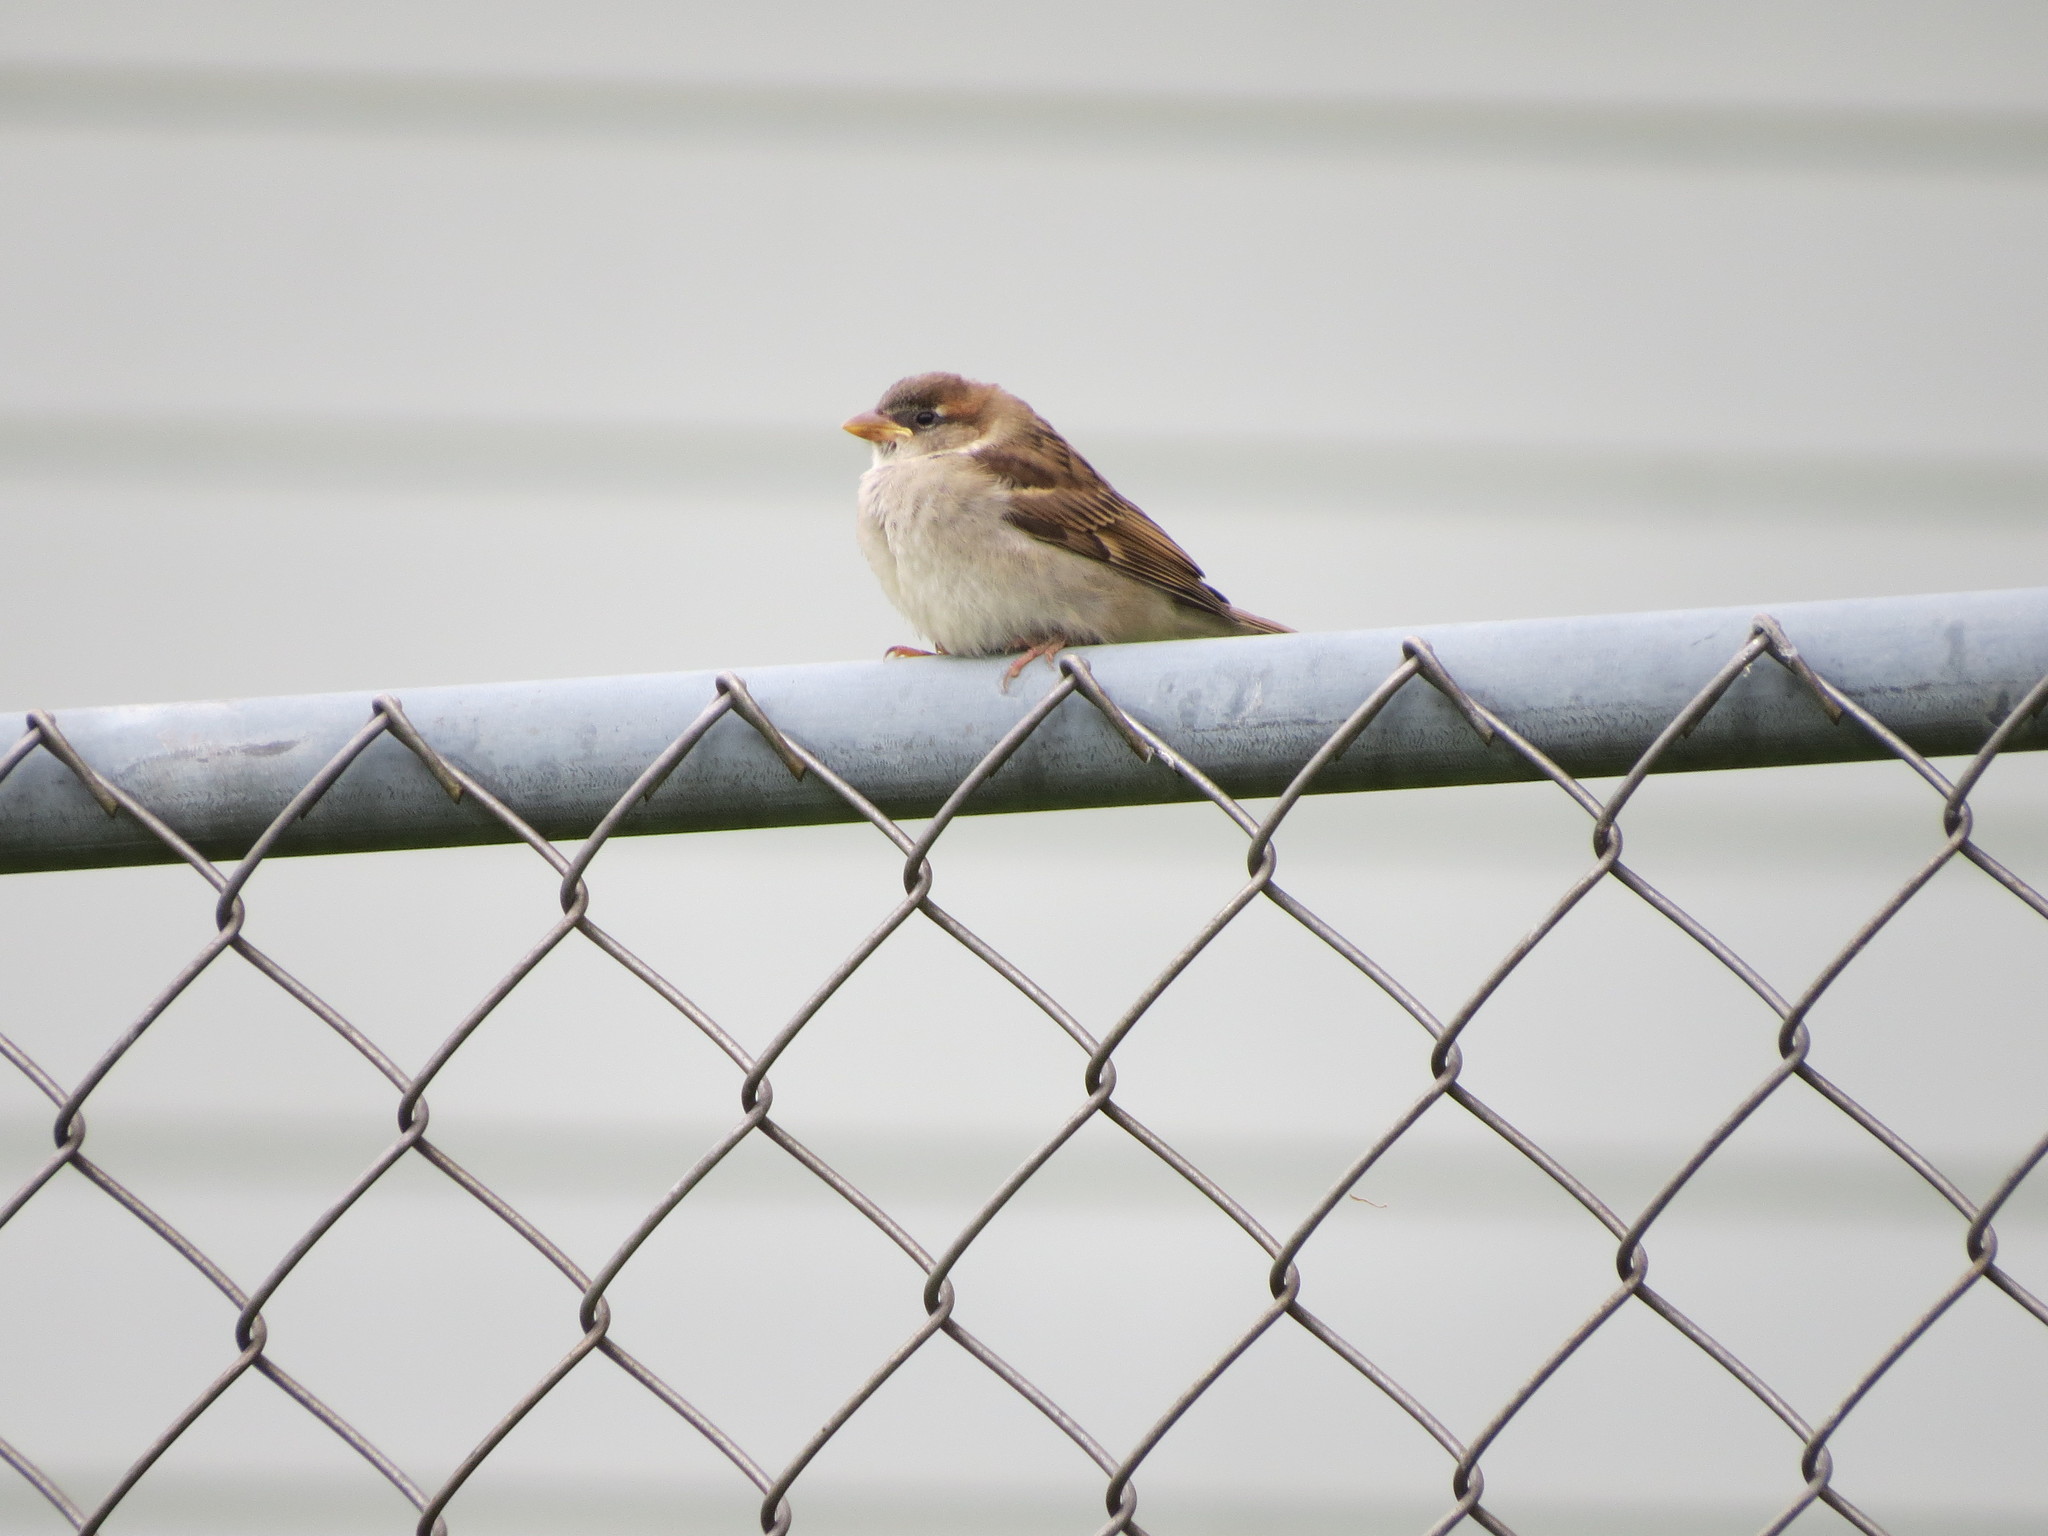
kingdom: Animalia
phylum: Chordata
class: Aves
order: Passeriformes
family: Passeridae
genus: Passer
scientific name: Passer domesticus
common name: House sparrow
